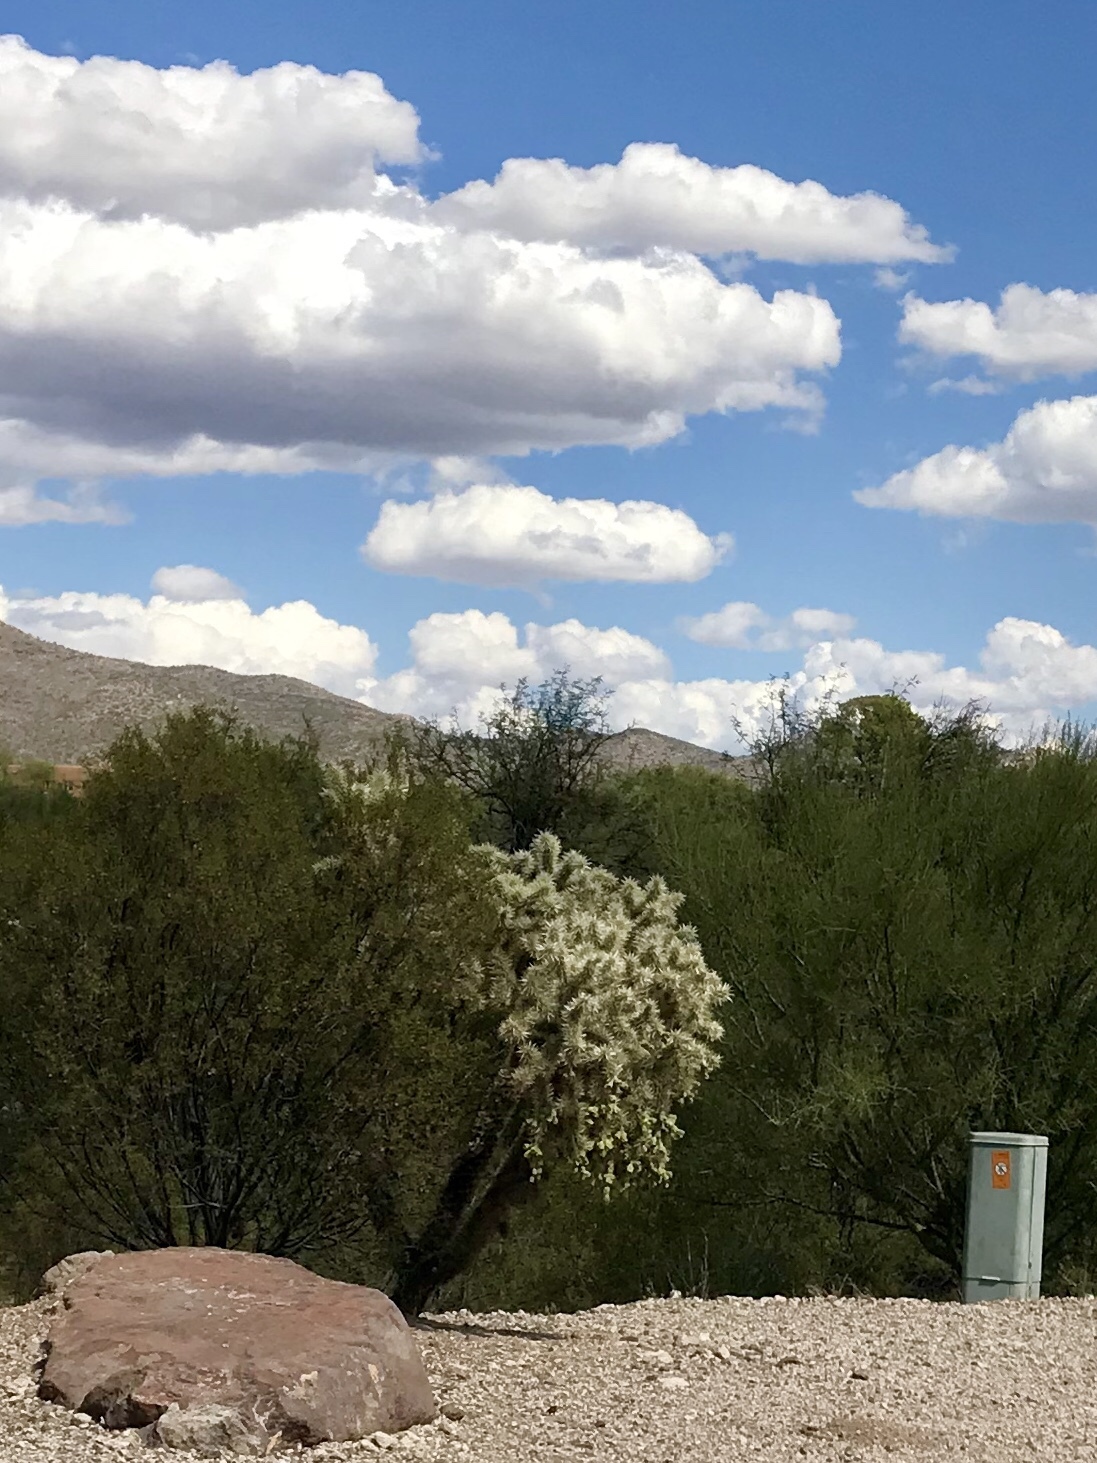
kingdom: Plantae
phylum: Tracheophyta
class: Magnoliopsida
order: Caryophyllales
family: Cactaceae
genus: Cylindropuntia
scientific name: Cylindropuntia fulgida
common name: Jumping cholla
